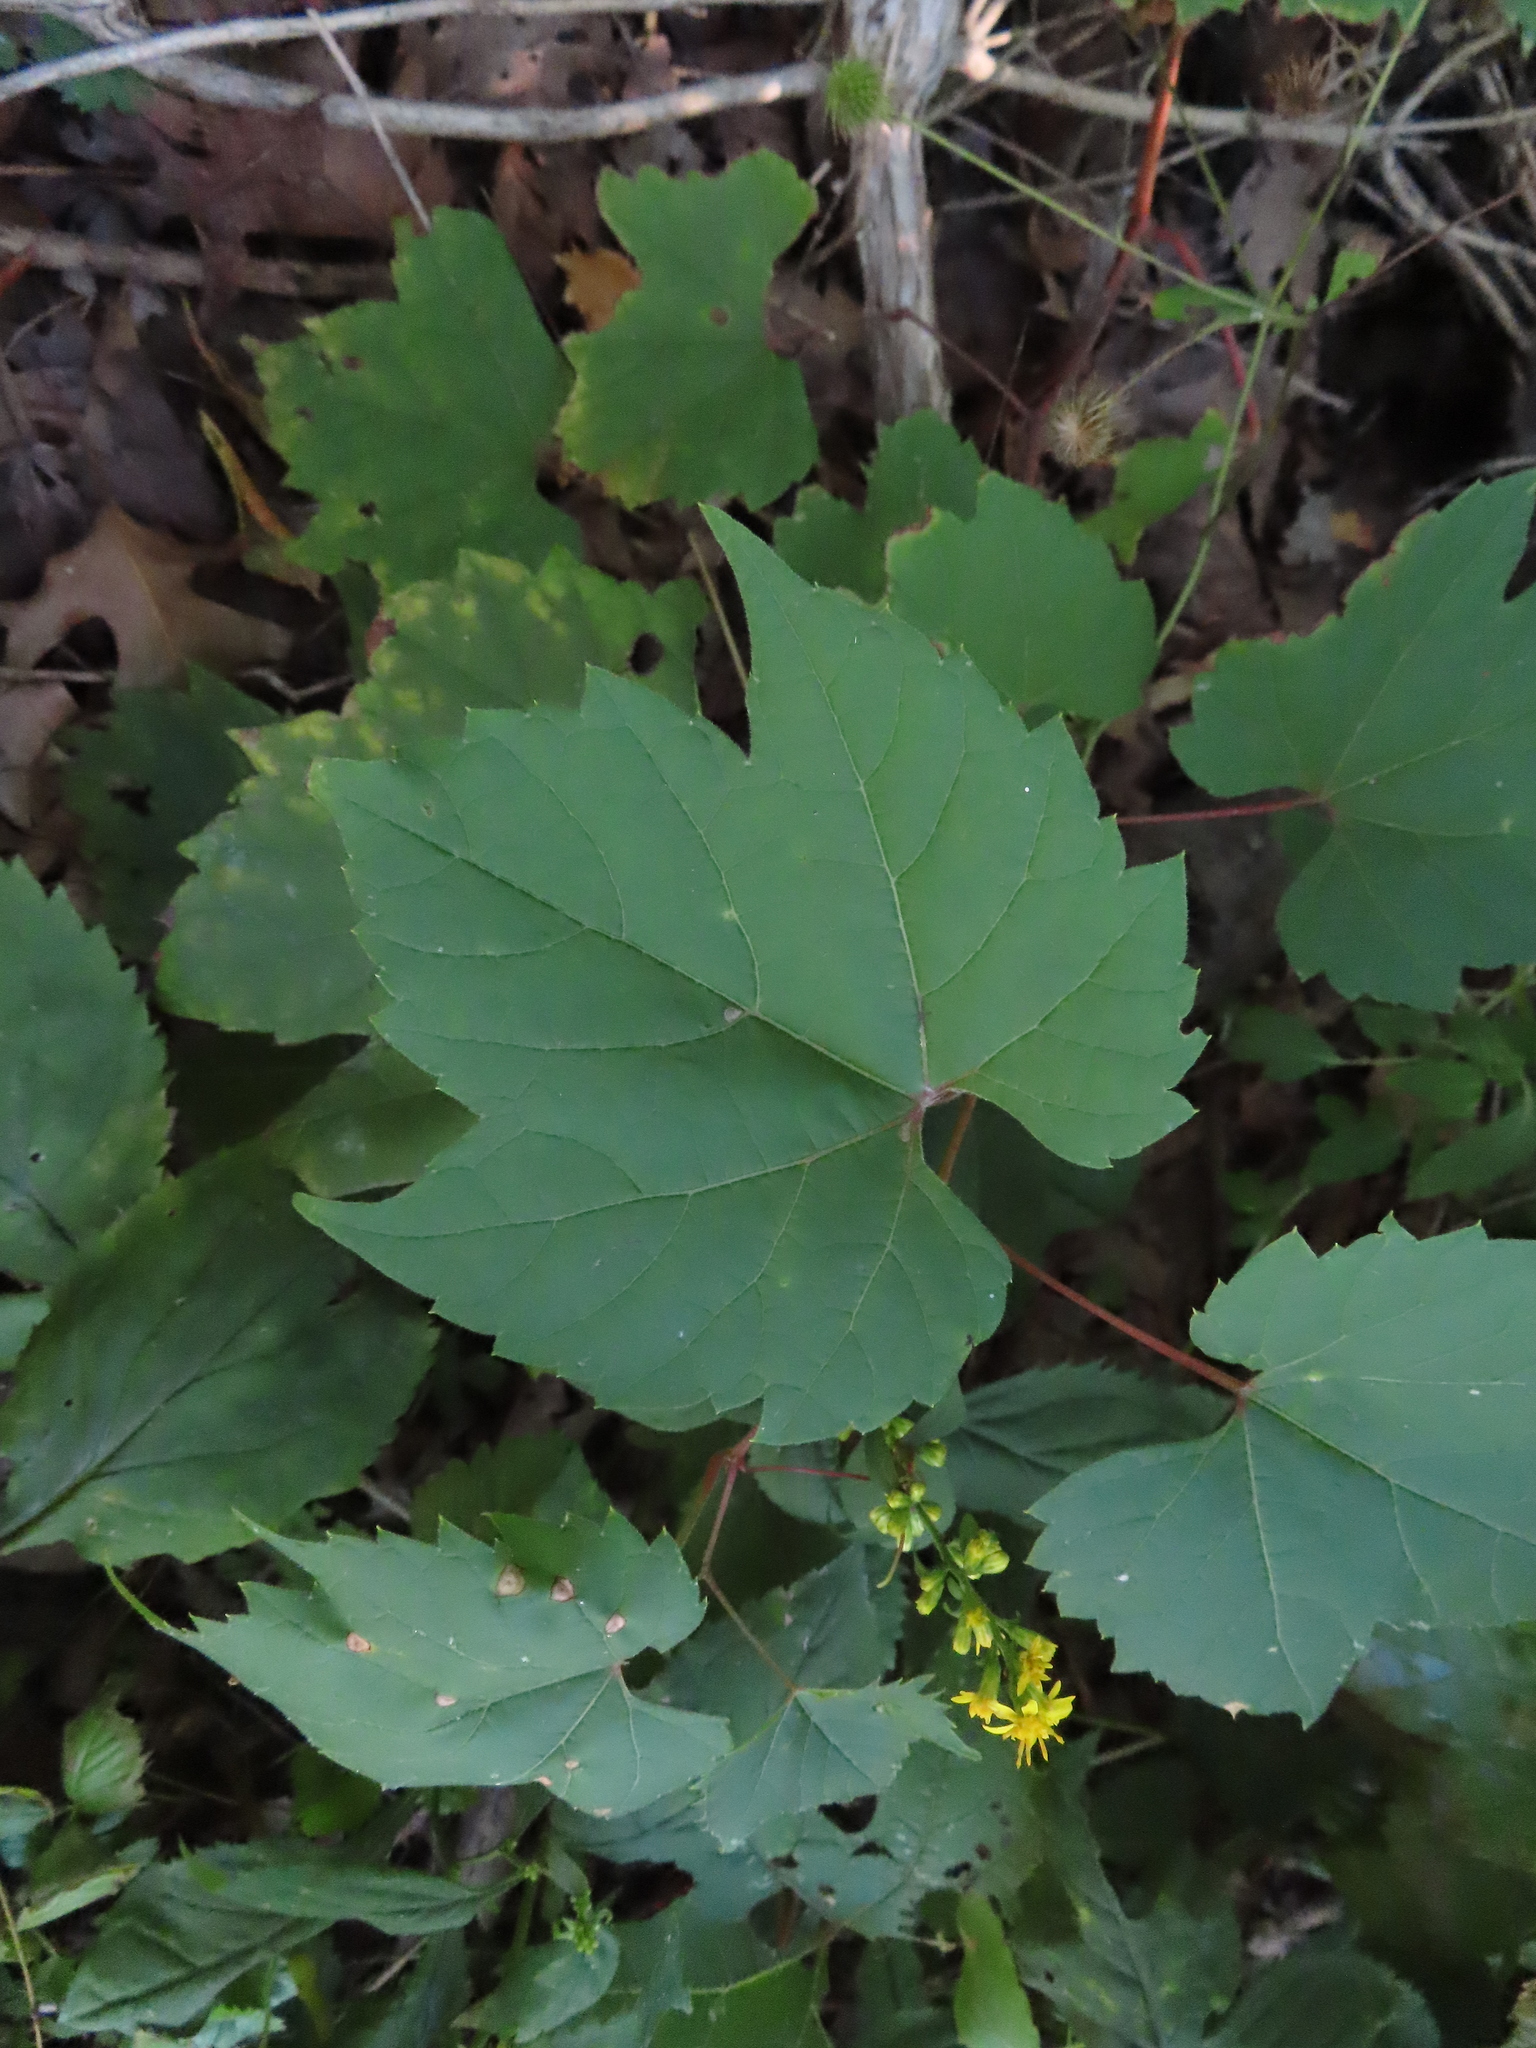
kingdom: Plantae
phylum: Tracheophyta
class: Magnoliopsida
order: Vitales
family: Vitaceae
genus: Vitis
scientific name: Vitis riparia
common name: Frost grape
